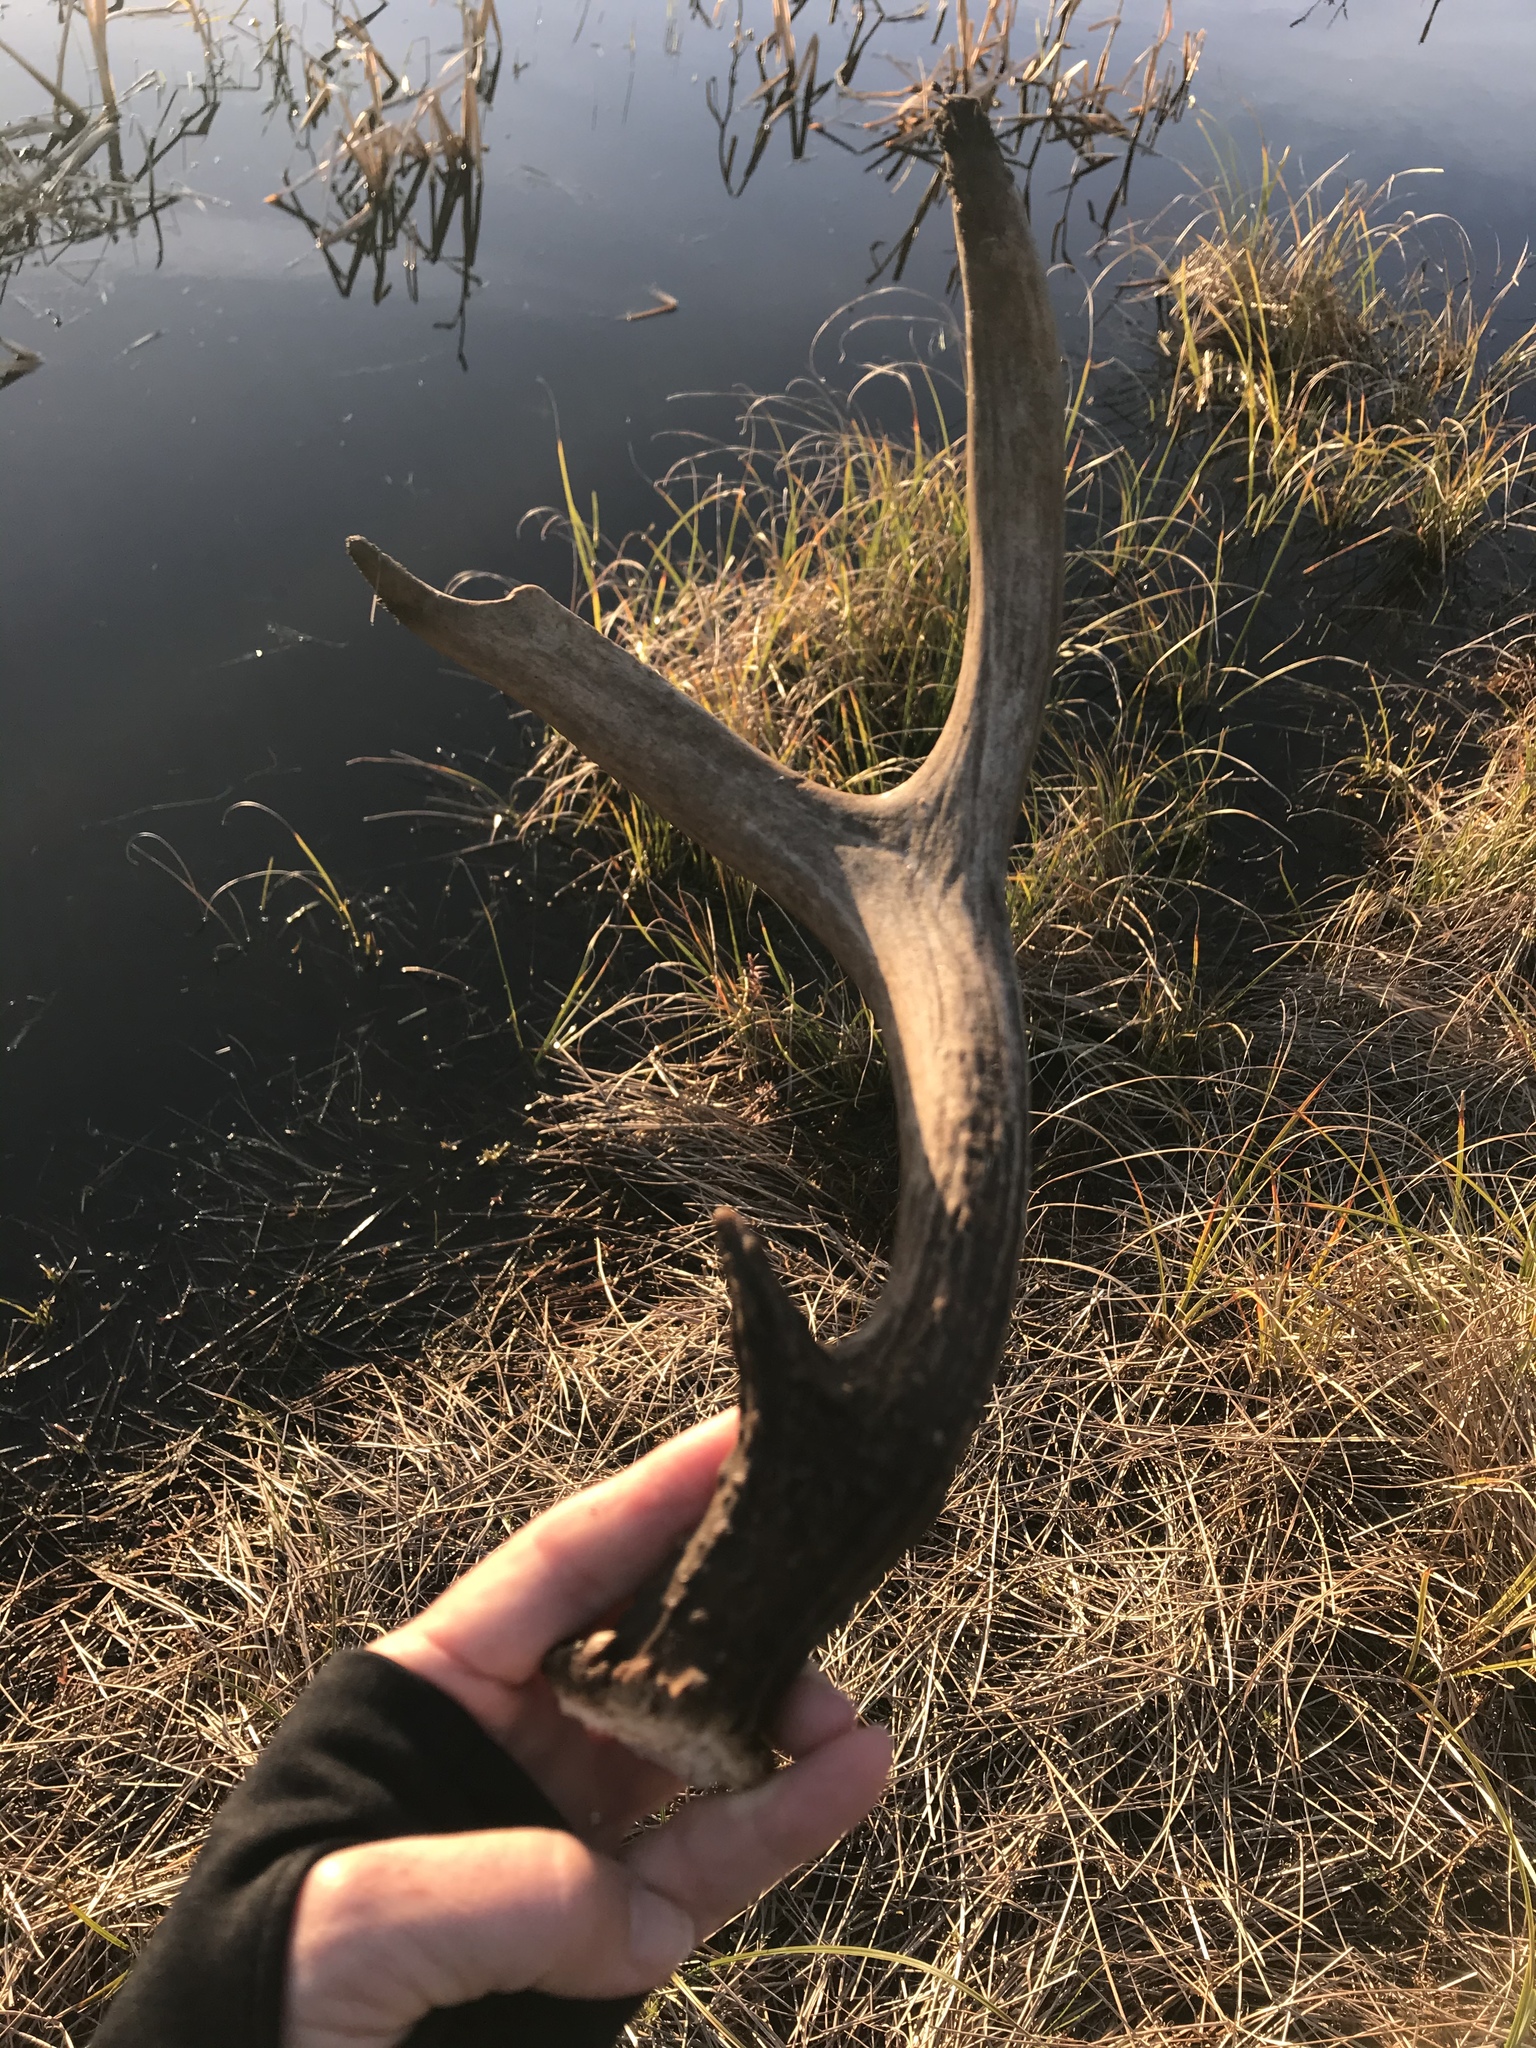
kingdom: Animalia
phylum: Chordata
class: Mammalia
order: Artiodactyla
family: Cervidae
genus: Odocoileus
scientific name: Odocoileus hemionus
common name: Mule deer
